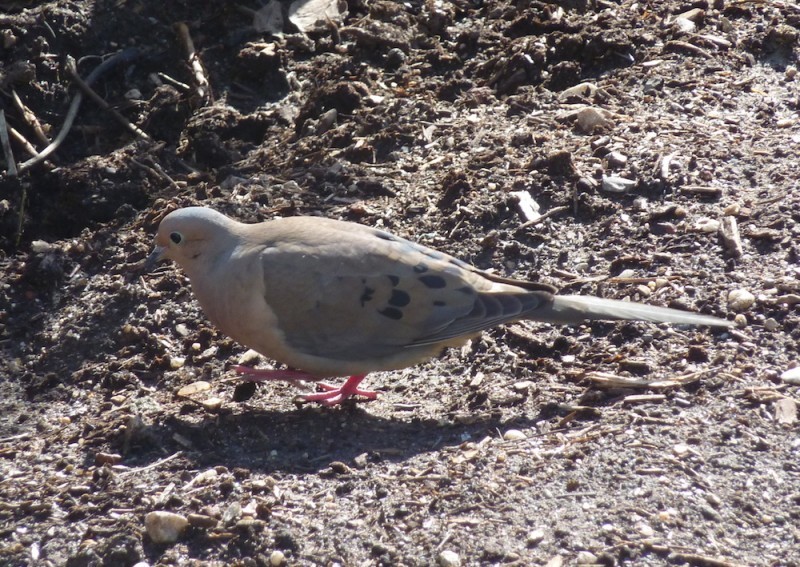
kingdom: Animalia
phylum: Chordata
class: Aves
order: Columbiformes
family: Columbidae
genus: Zenaida
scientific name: Zenaida macroura
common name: Mourning dove
